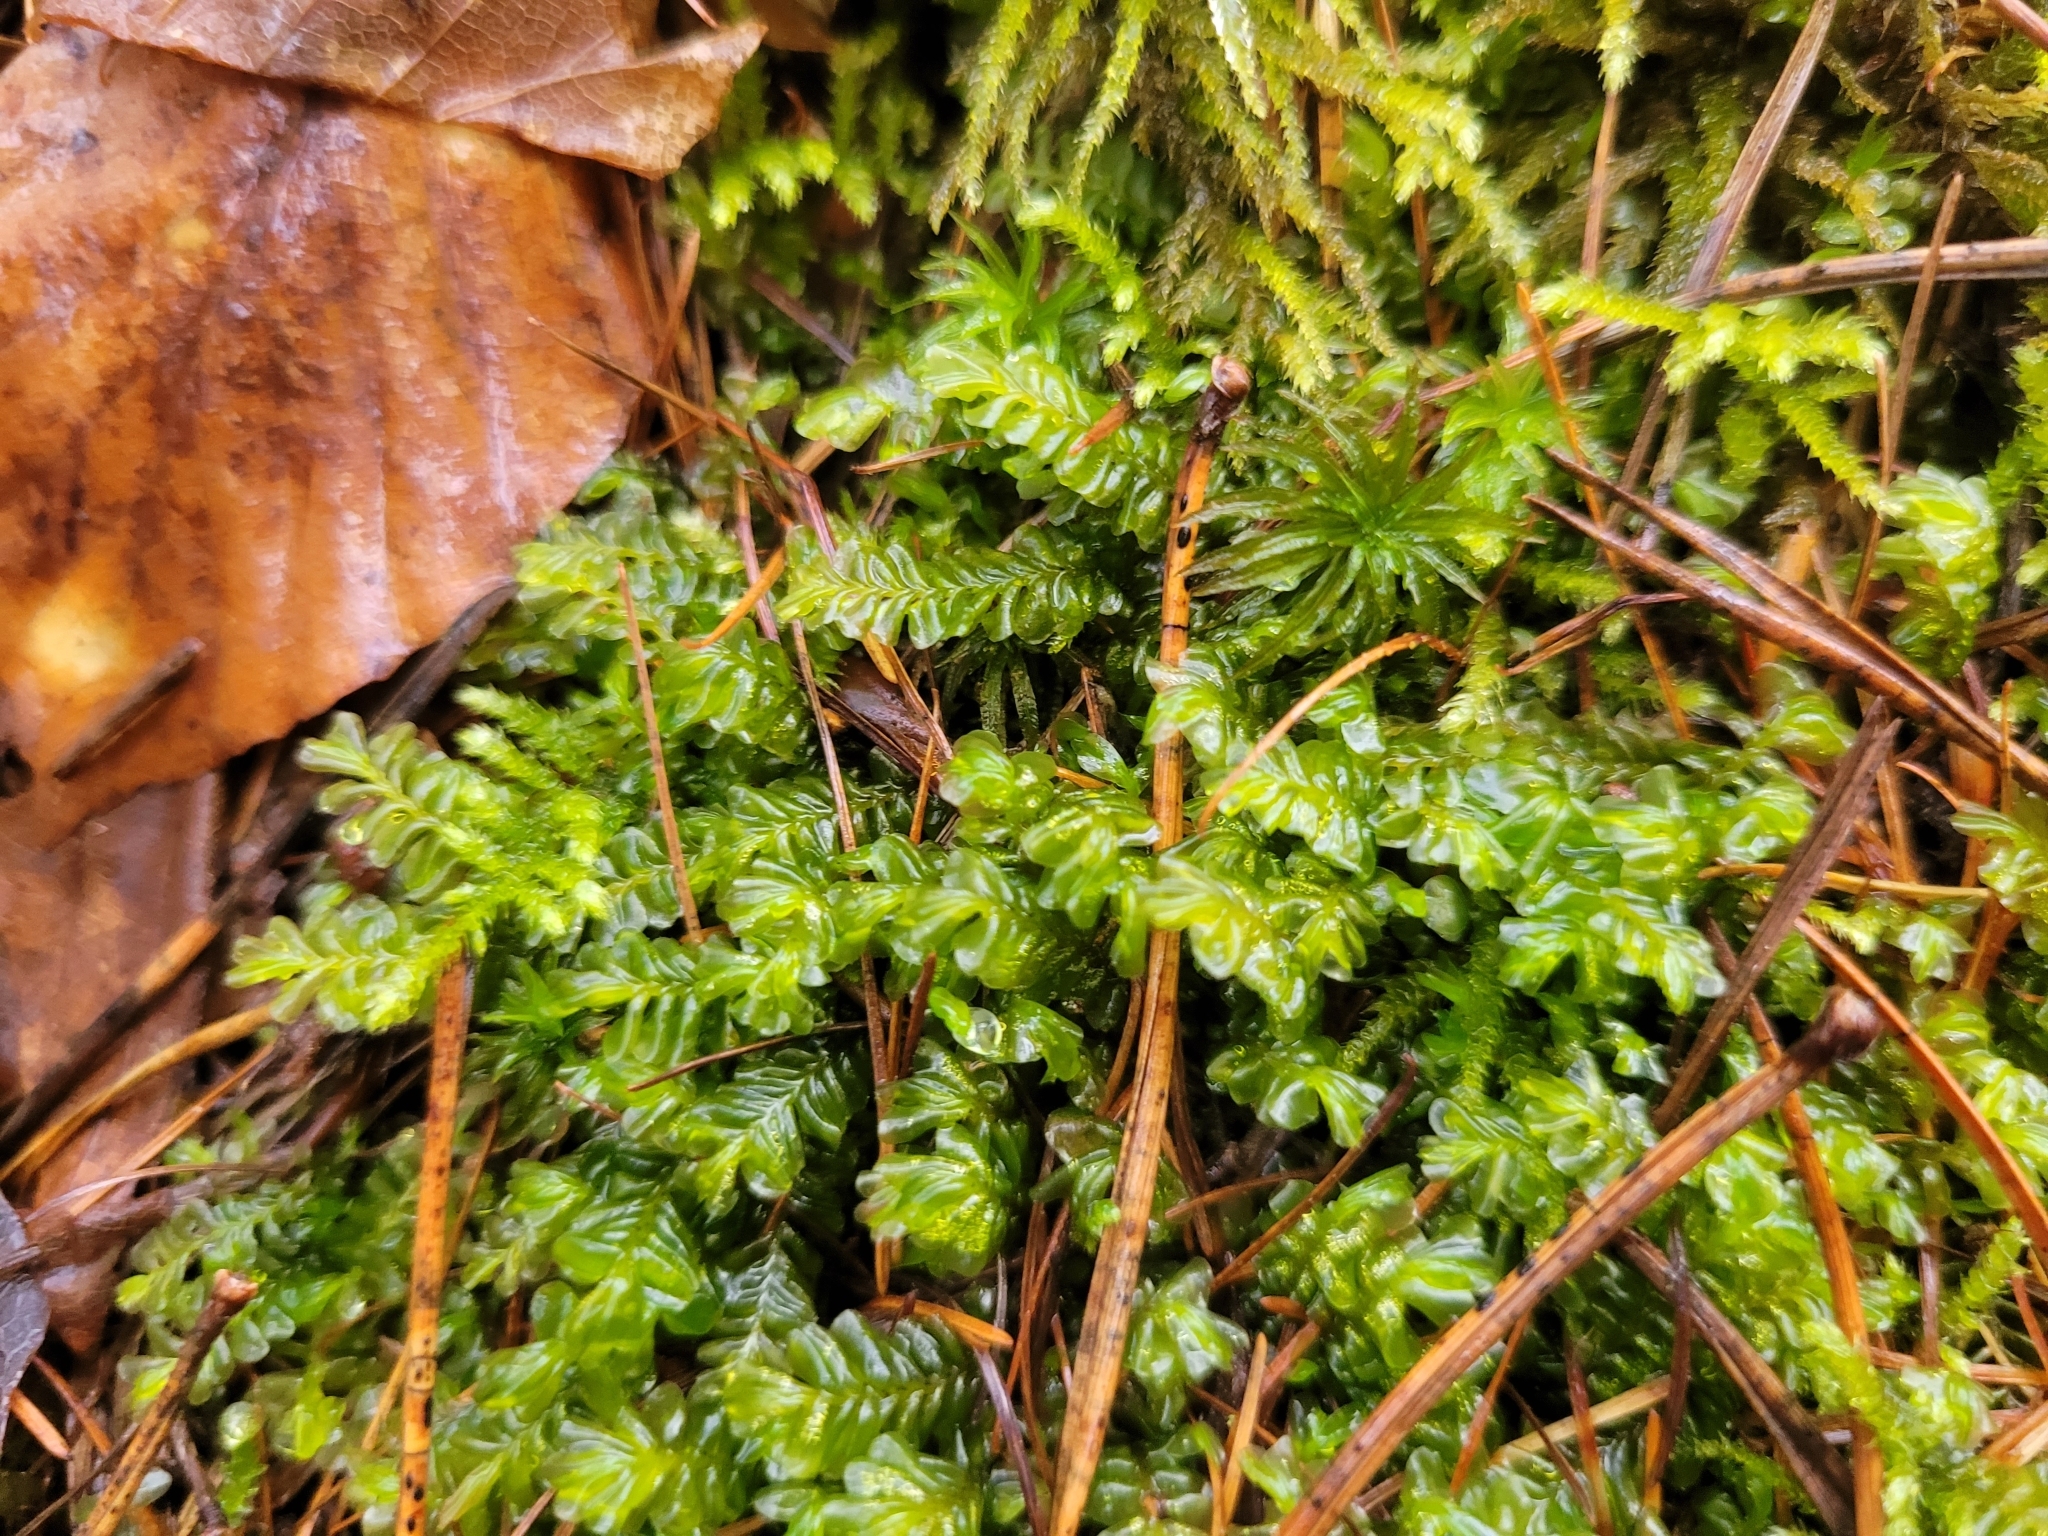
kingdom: Plantae
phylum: Marchantiophyta
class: Jungermanniopsida
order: Jungermanniales
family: Plagiochilaceae
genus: Plagiochila
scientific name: Plagiochila asplenioides
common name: Greater featherwort
